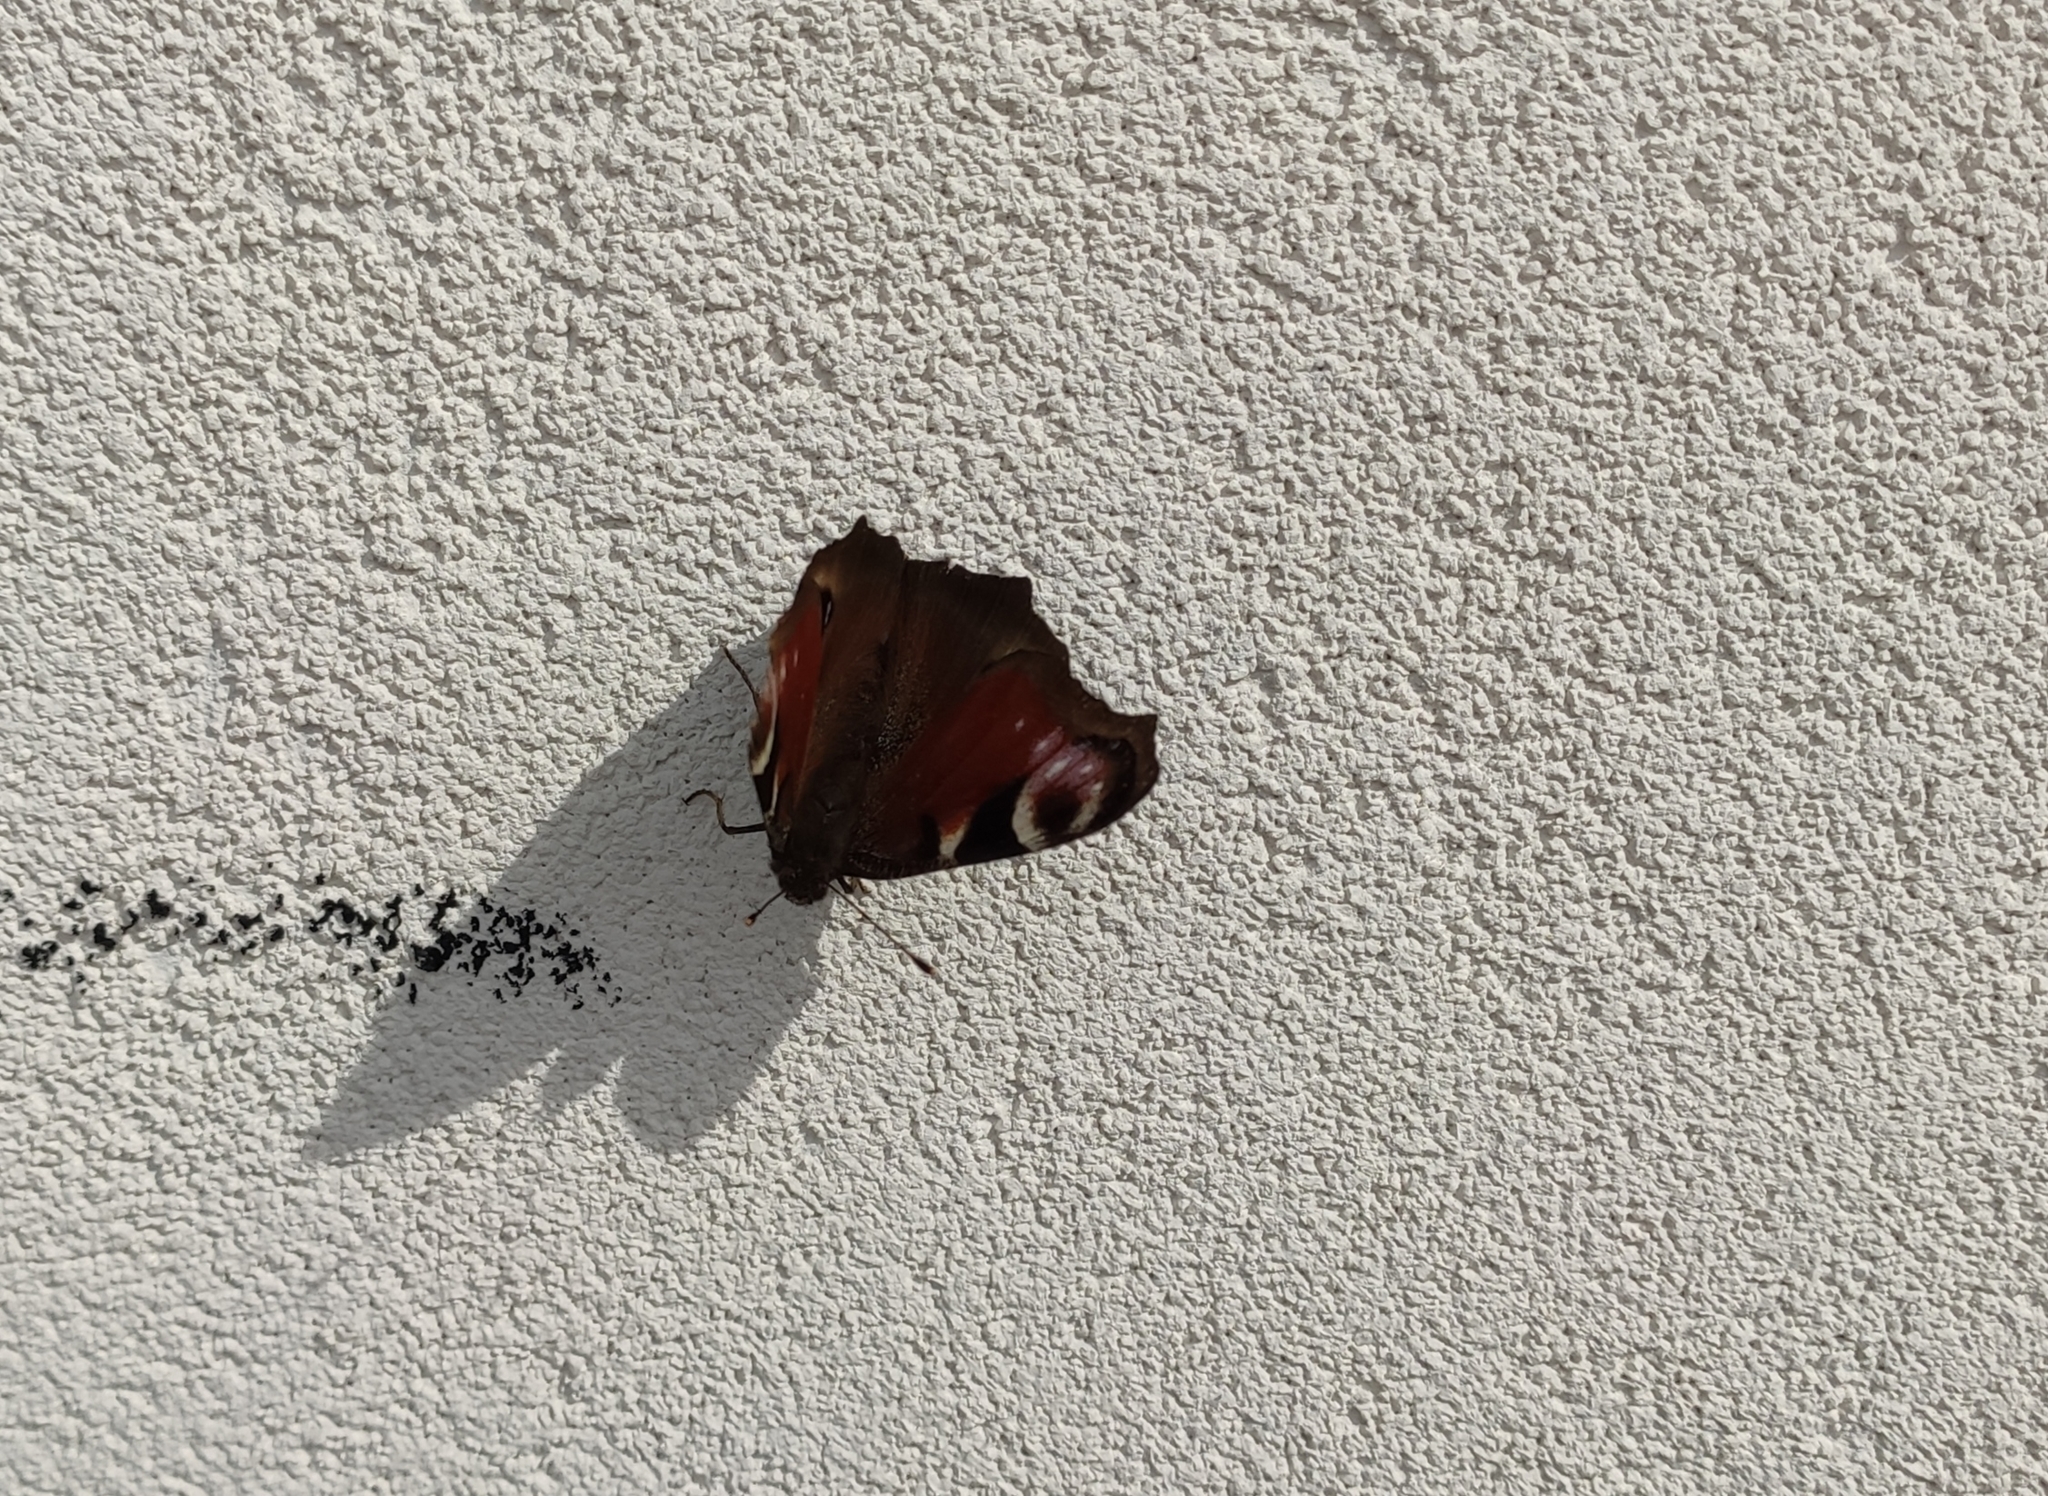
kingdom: Animalia
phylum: Arthropoda
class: Insecta
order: Lepidoptera
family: Nymphalidae
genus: Aglais
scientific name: Aglais io
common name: Peacock
